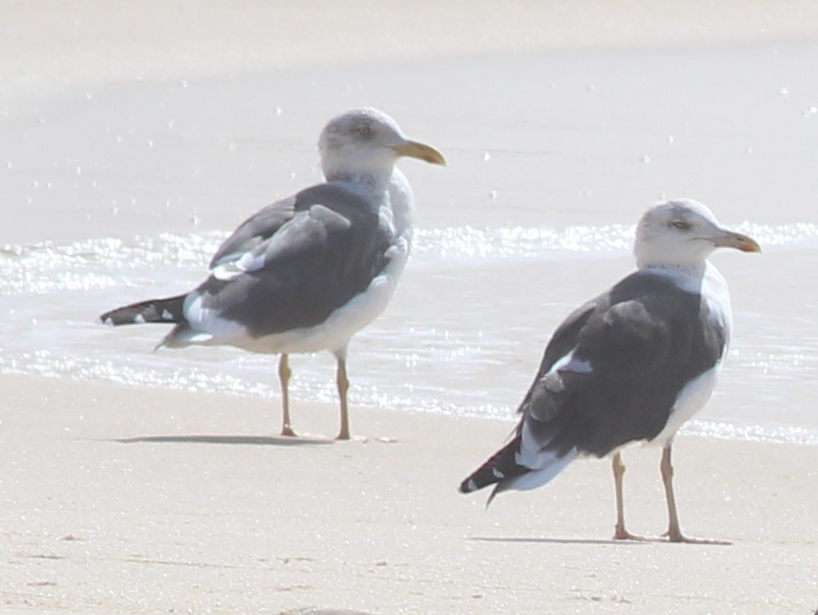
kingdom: Animalia
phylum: Chordata
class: Aves
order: Charadriiformes
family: Laridae
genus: Larus
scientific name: Larus fuscus
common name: Lesser black-backed gull
